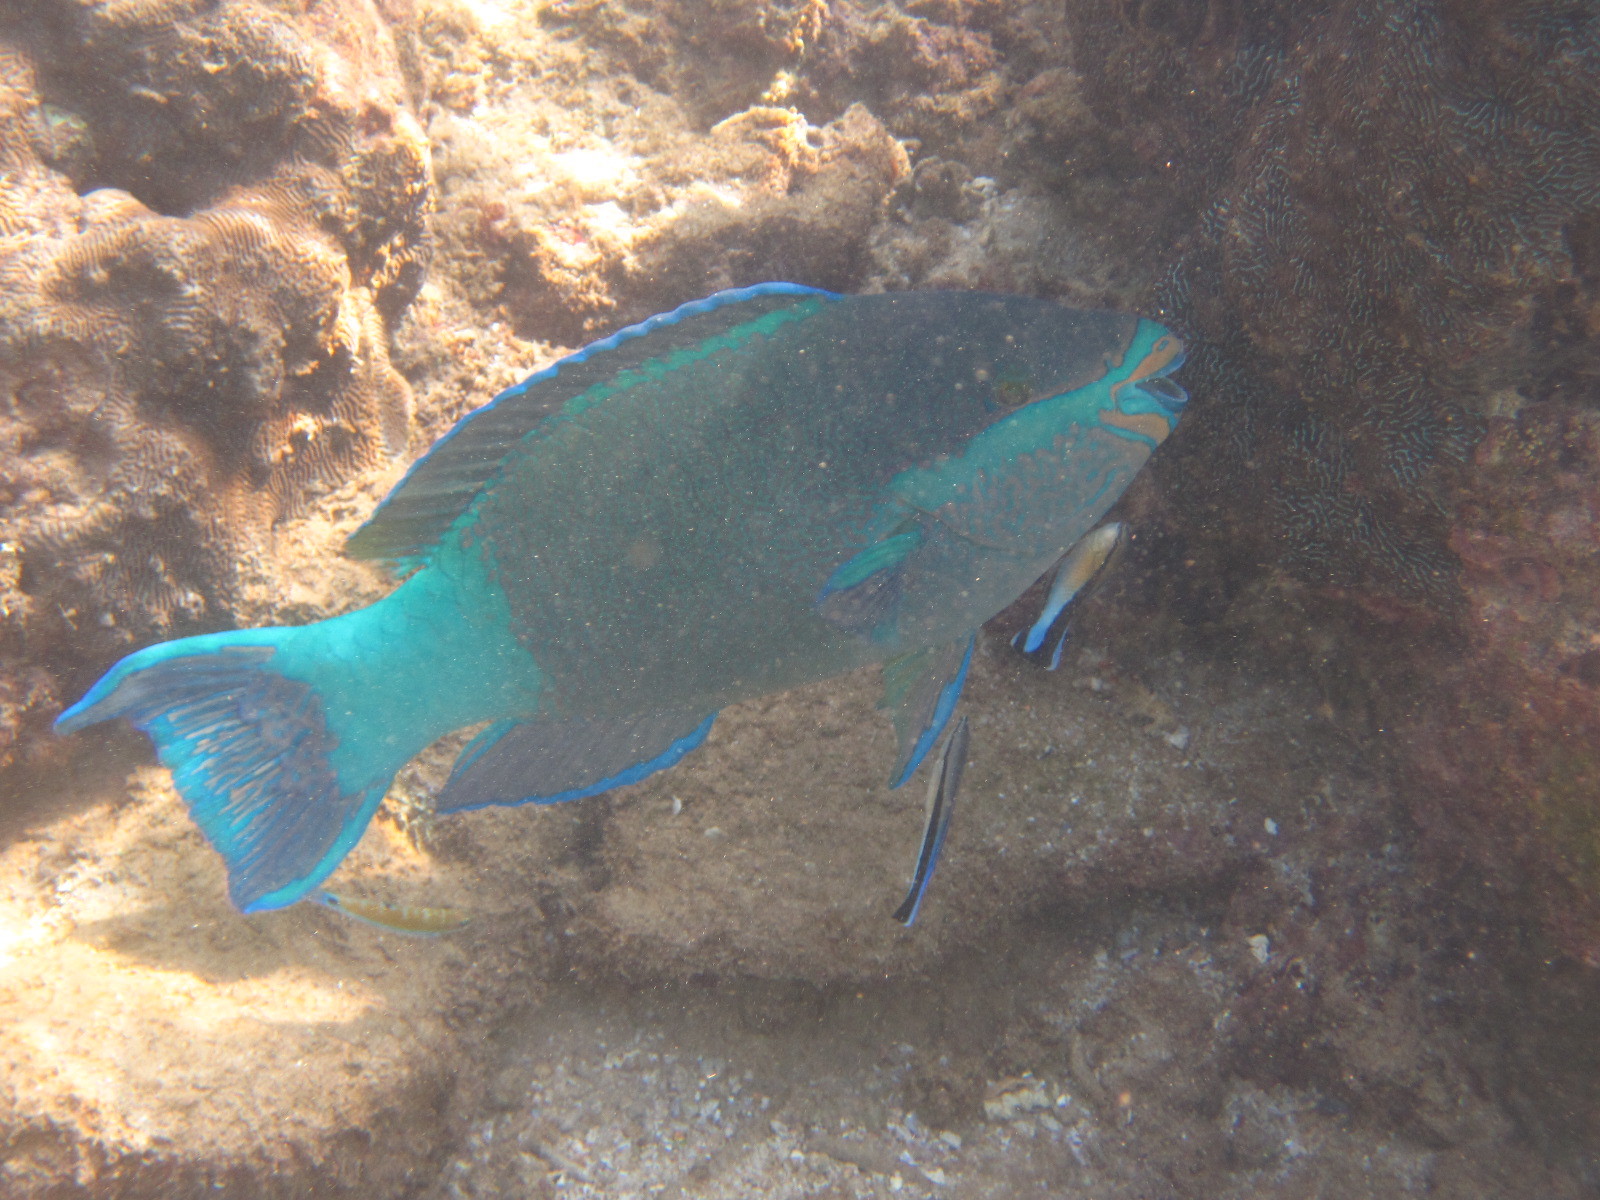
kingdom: Animalia
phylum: Chordata
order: Perciformes
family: Labridae
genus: Labroides
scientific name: Labroides dimidiatus
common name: Blue diesel wrasse
